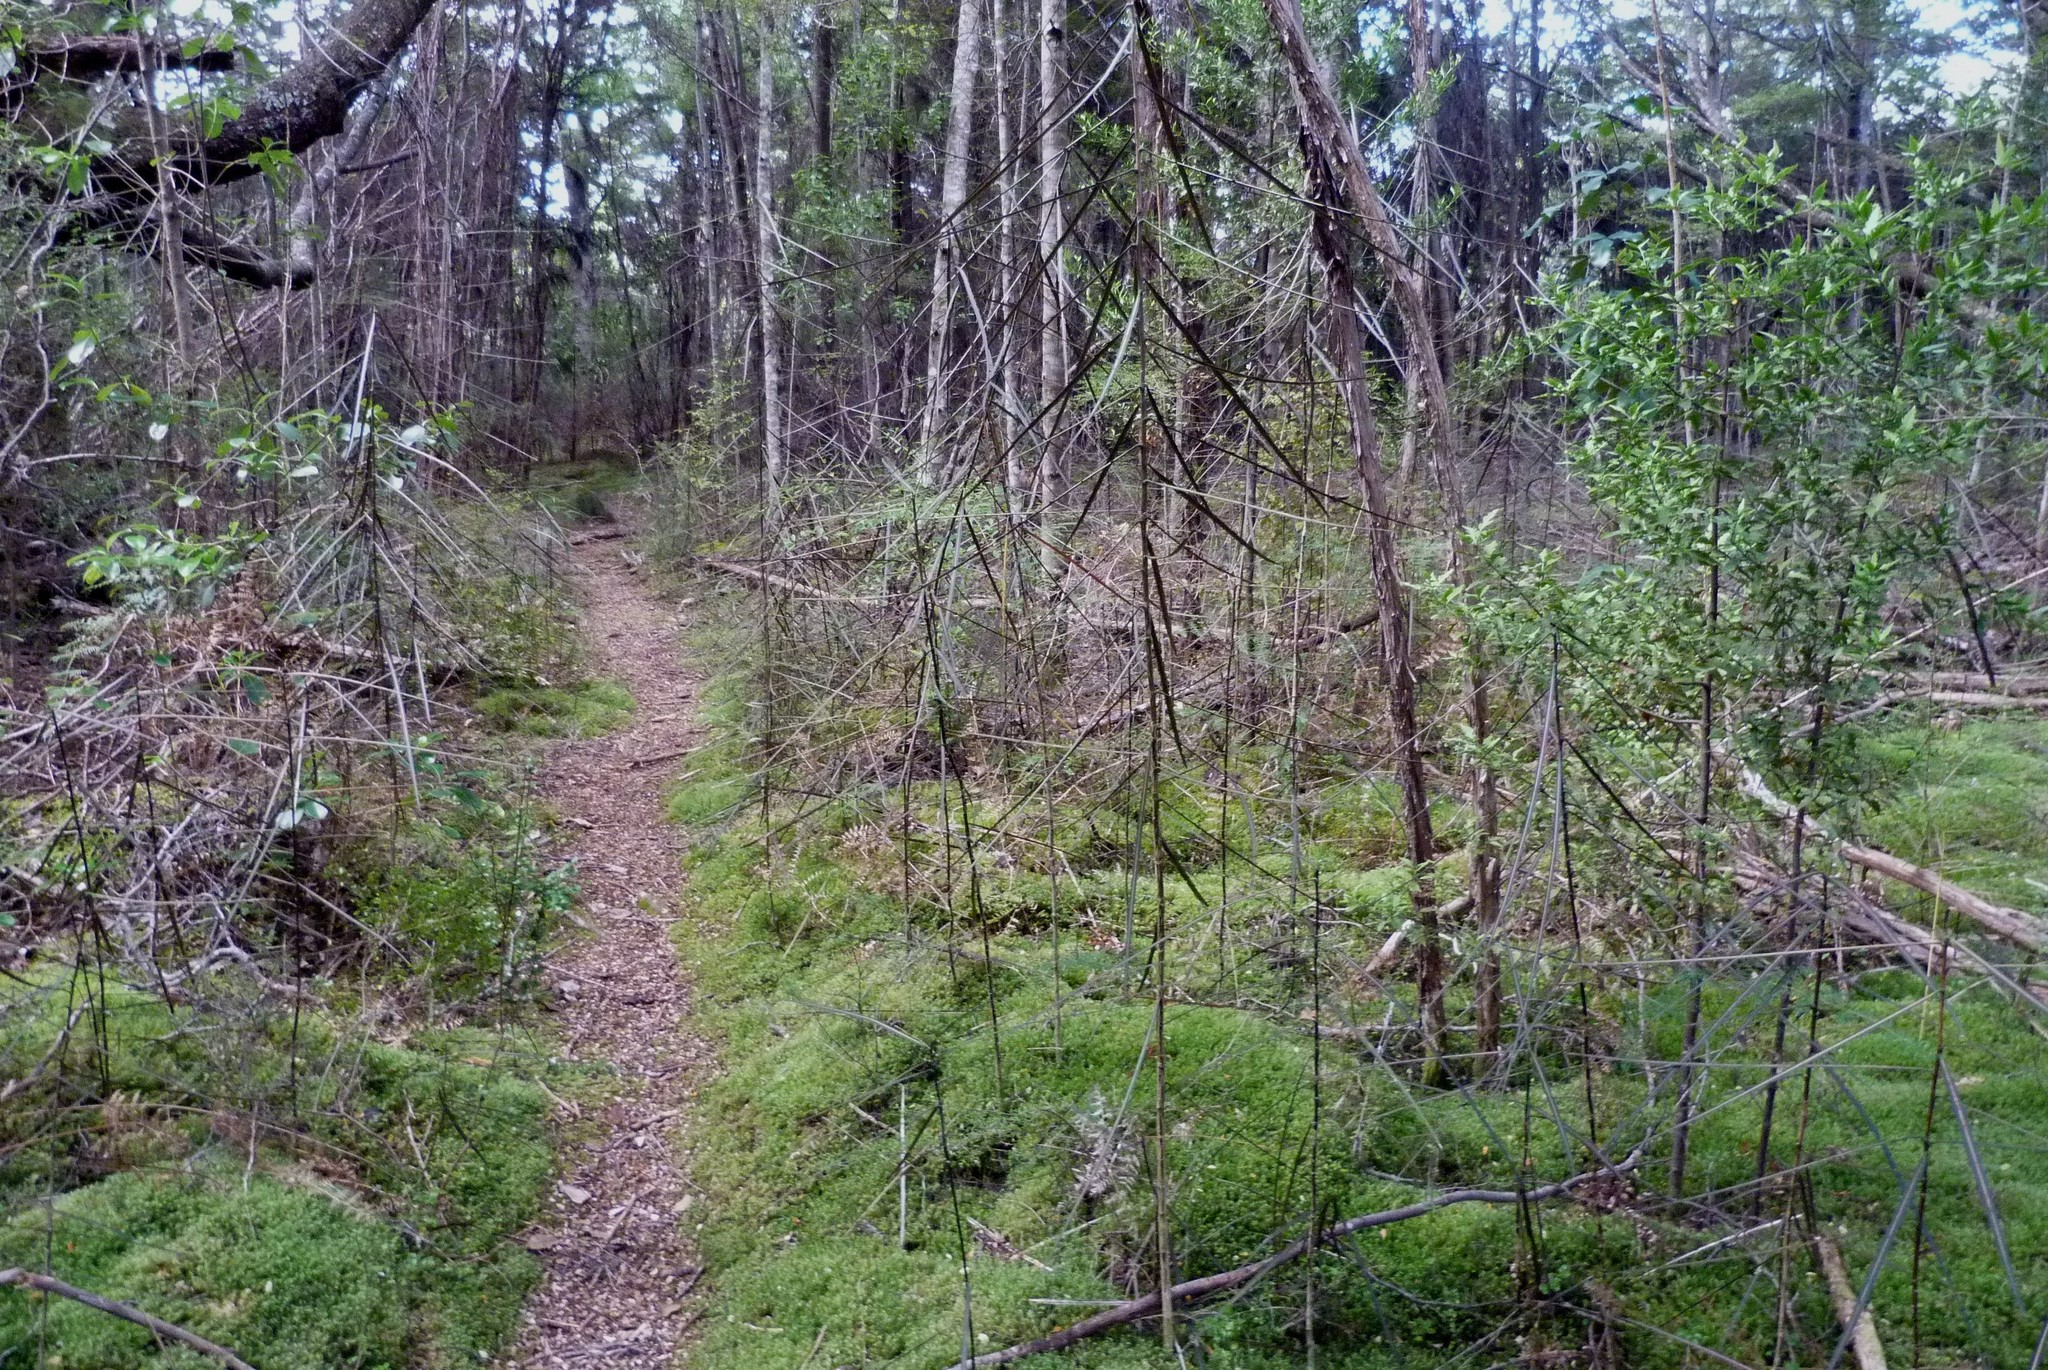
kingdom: Plantae
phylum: Tracheophyta
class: Magnoliopsida
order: Apiales
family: Araliaceae
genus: Pseudopanax
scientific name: Pseudopanax crassifolius
